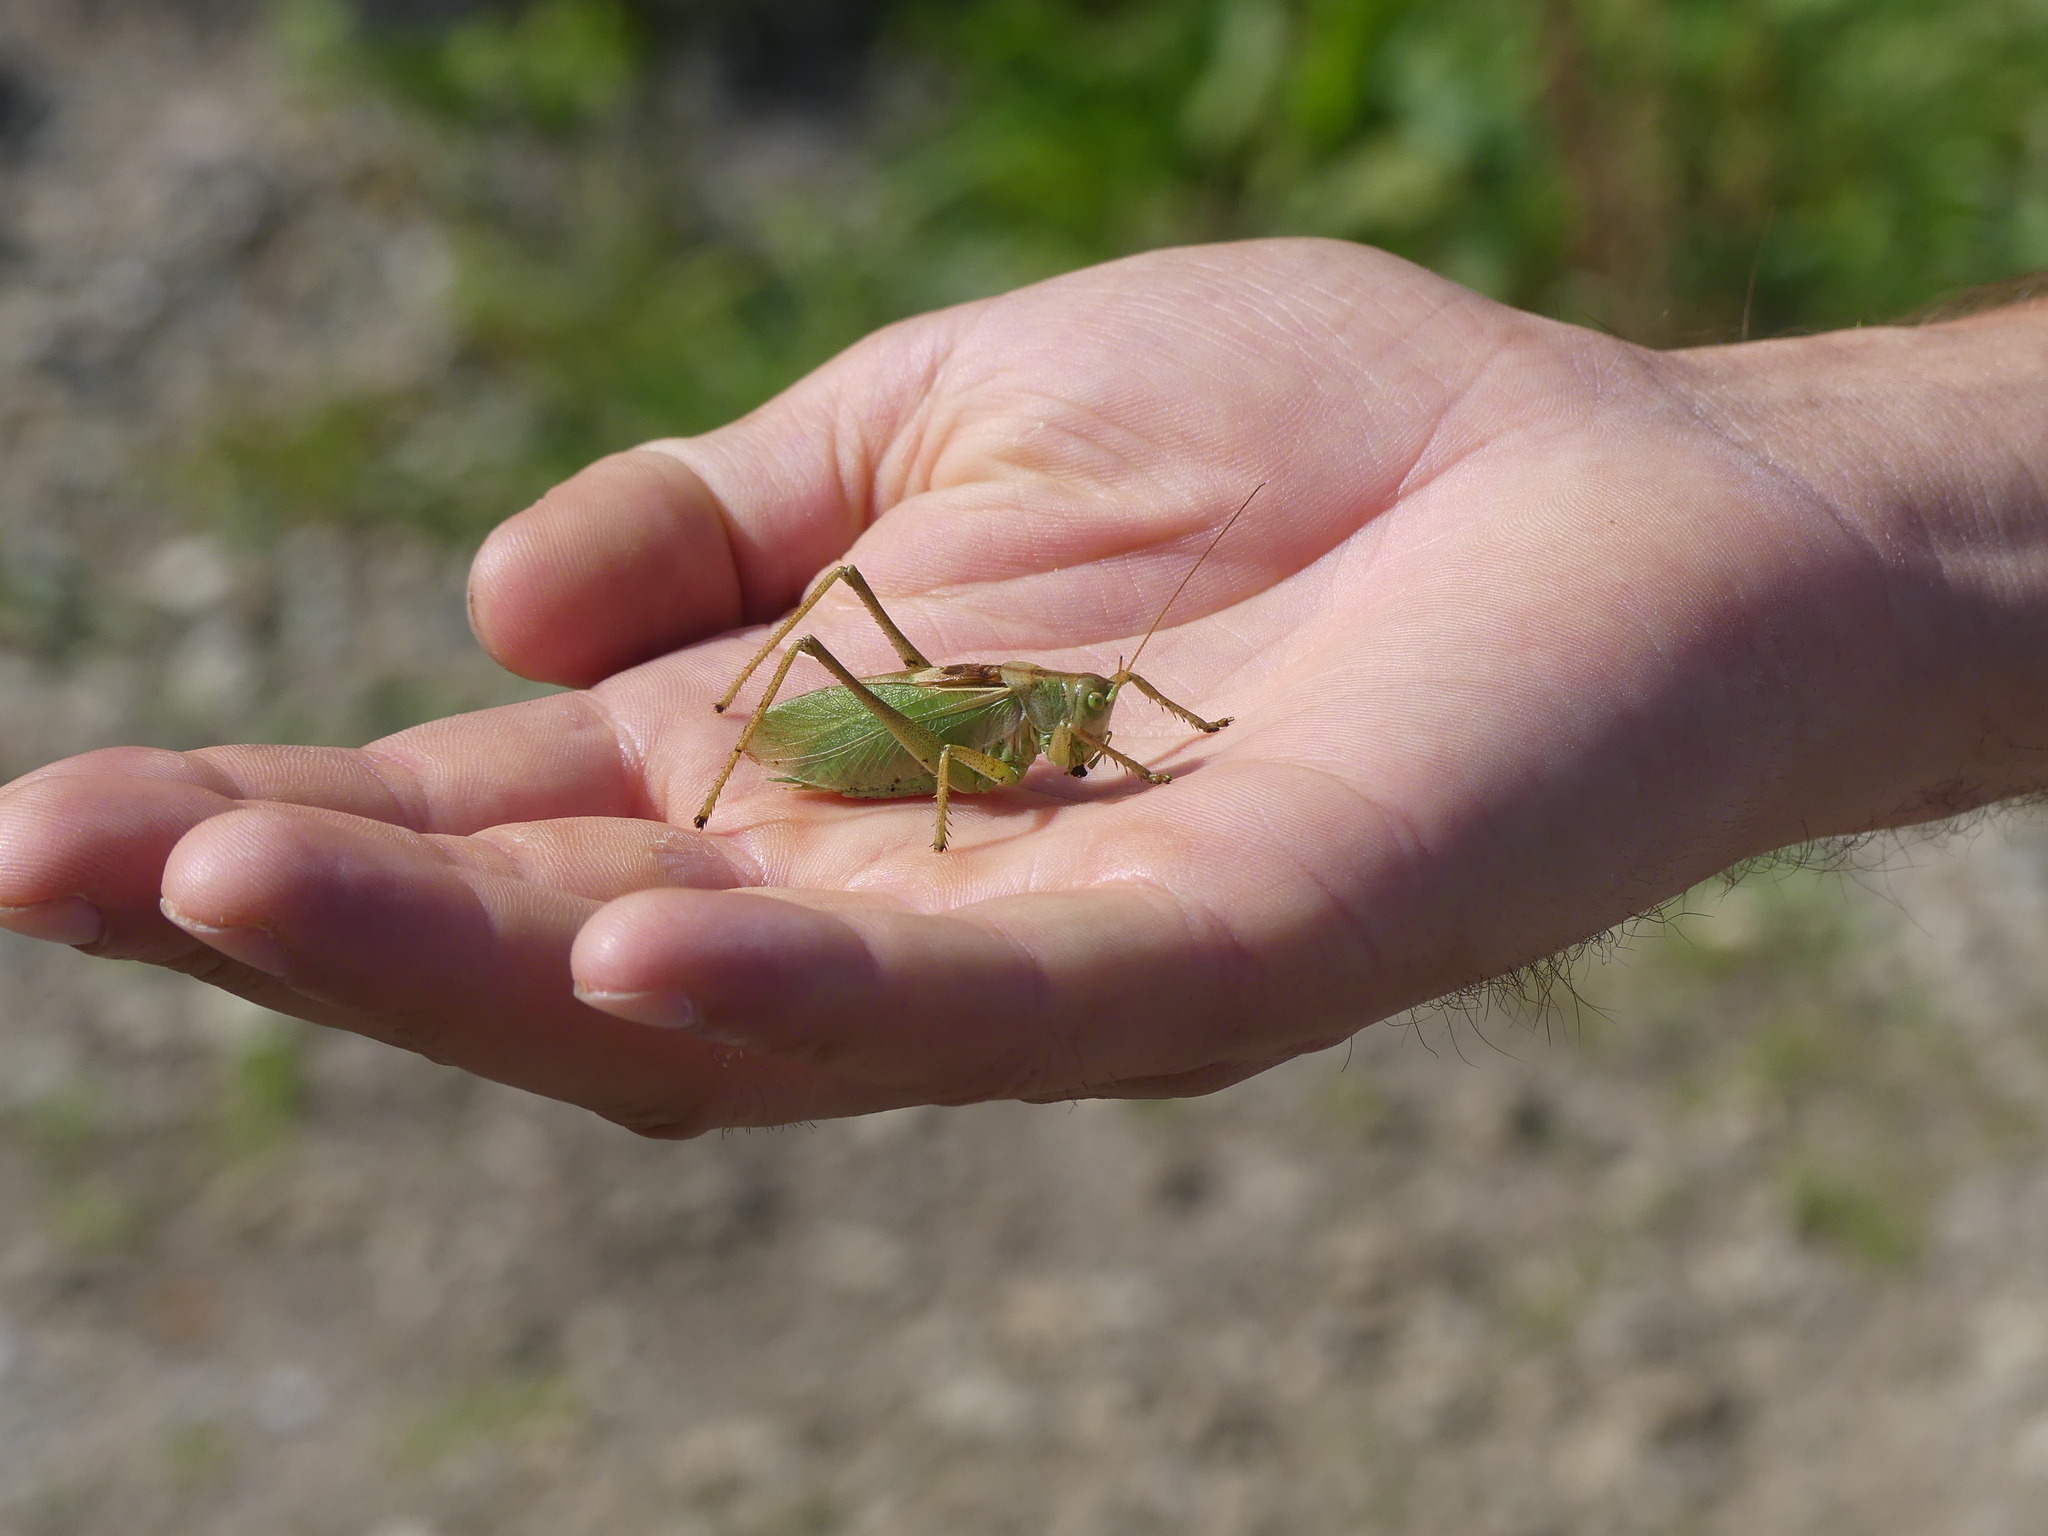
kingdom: Animalia
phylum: Arthropoda
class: Insecta
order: Orthoptera
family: Tettigoniidae
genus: Tettigonia
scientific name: Tettigonia cantans
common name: Upland green bush-cricket
